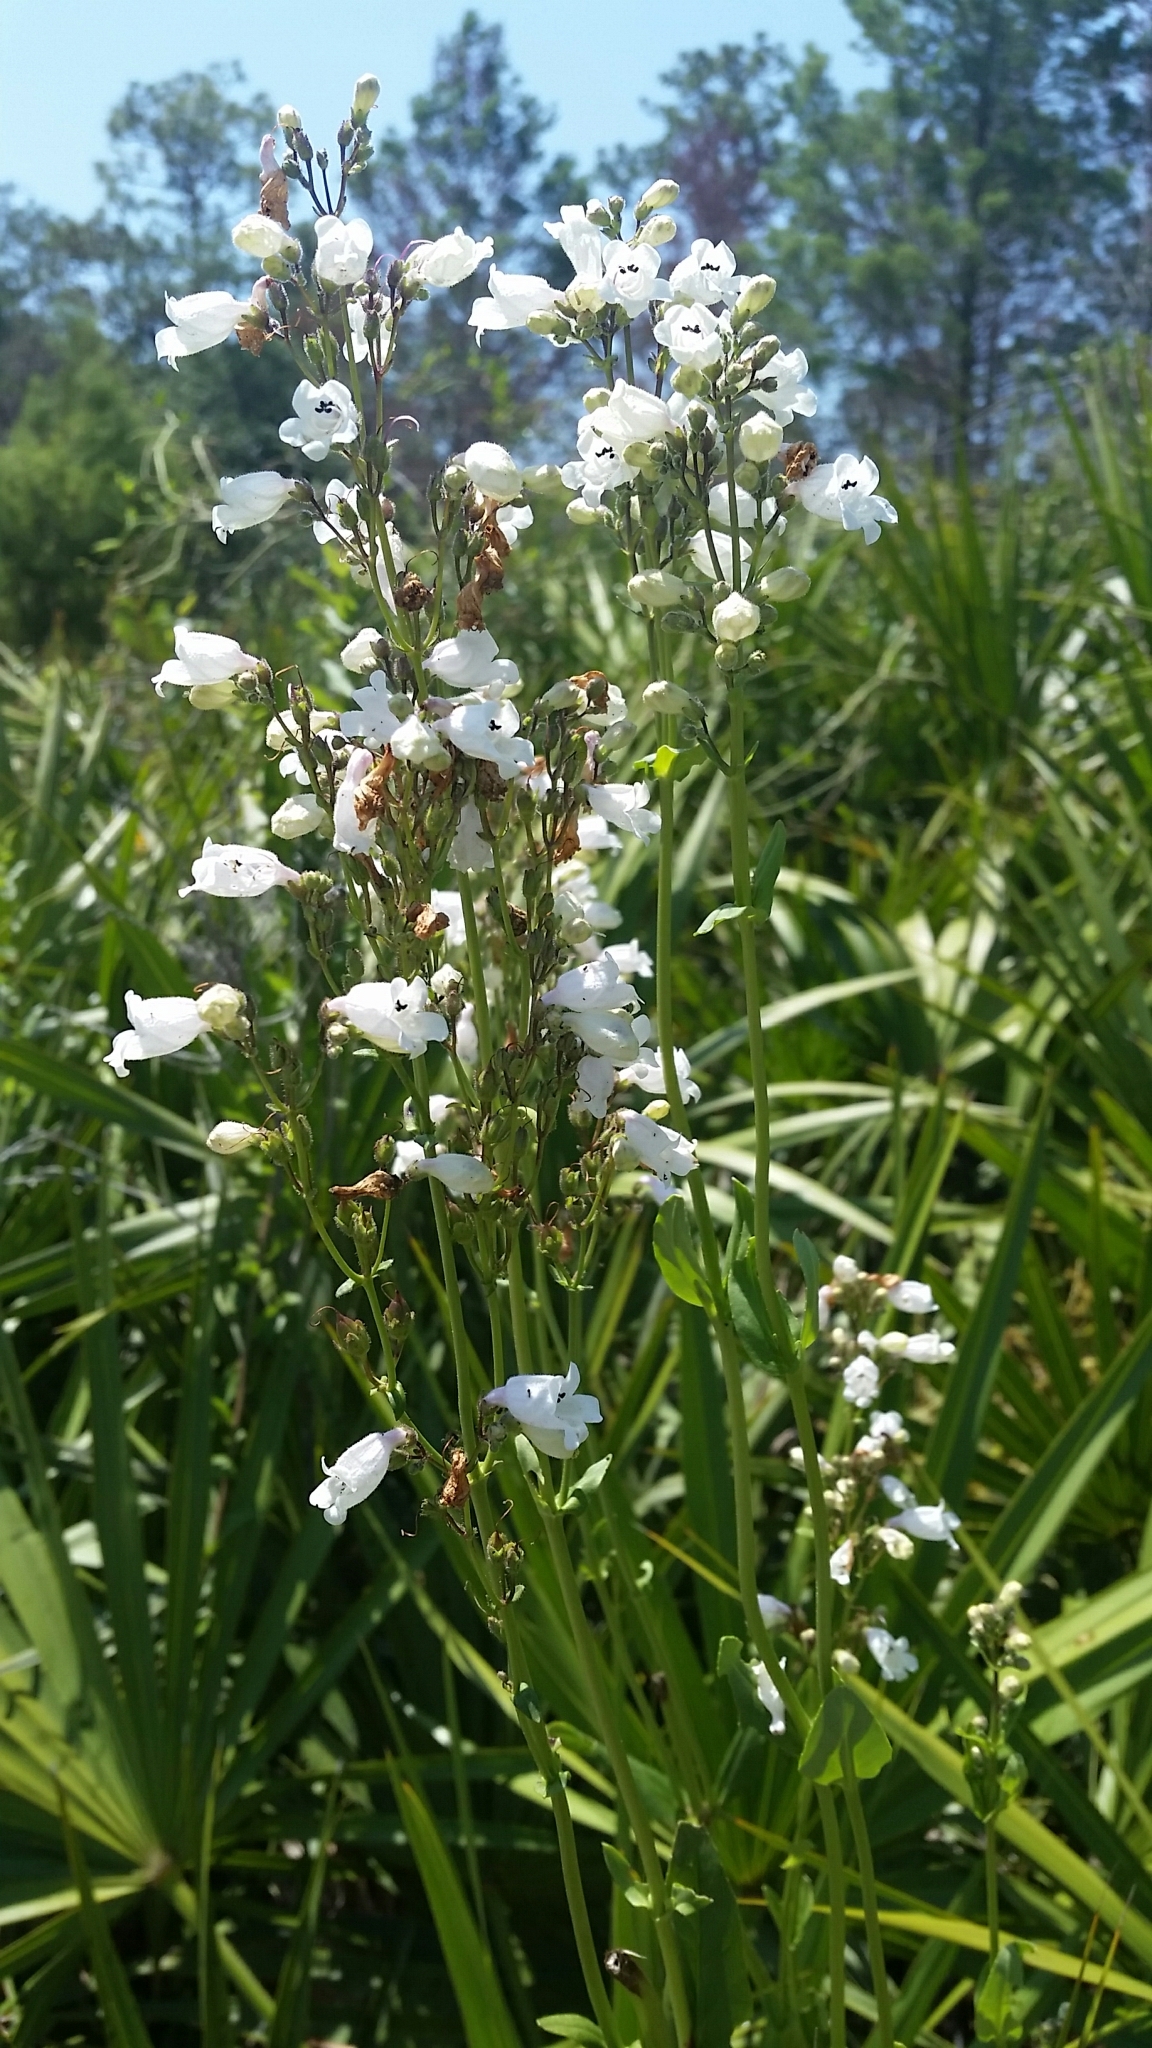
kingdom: Plantae
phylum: Tracheophyta
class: Magnoliopsida
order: Lamiales
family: Plantaginaceae
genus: Penstemon
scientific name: Penstemon multiflorus
